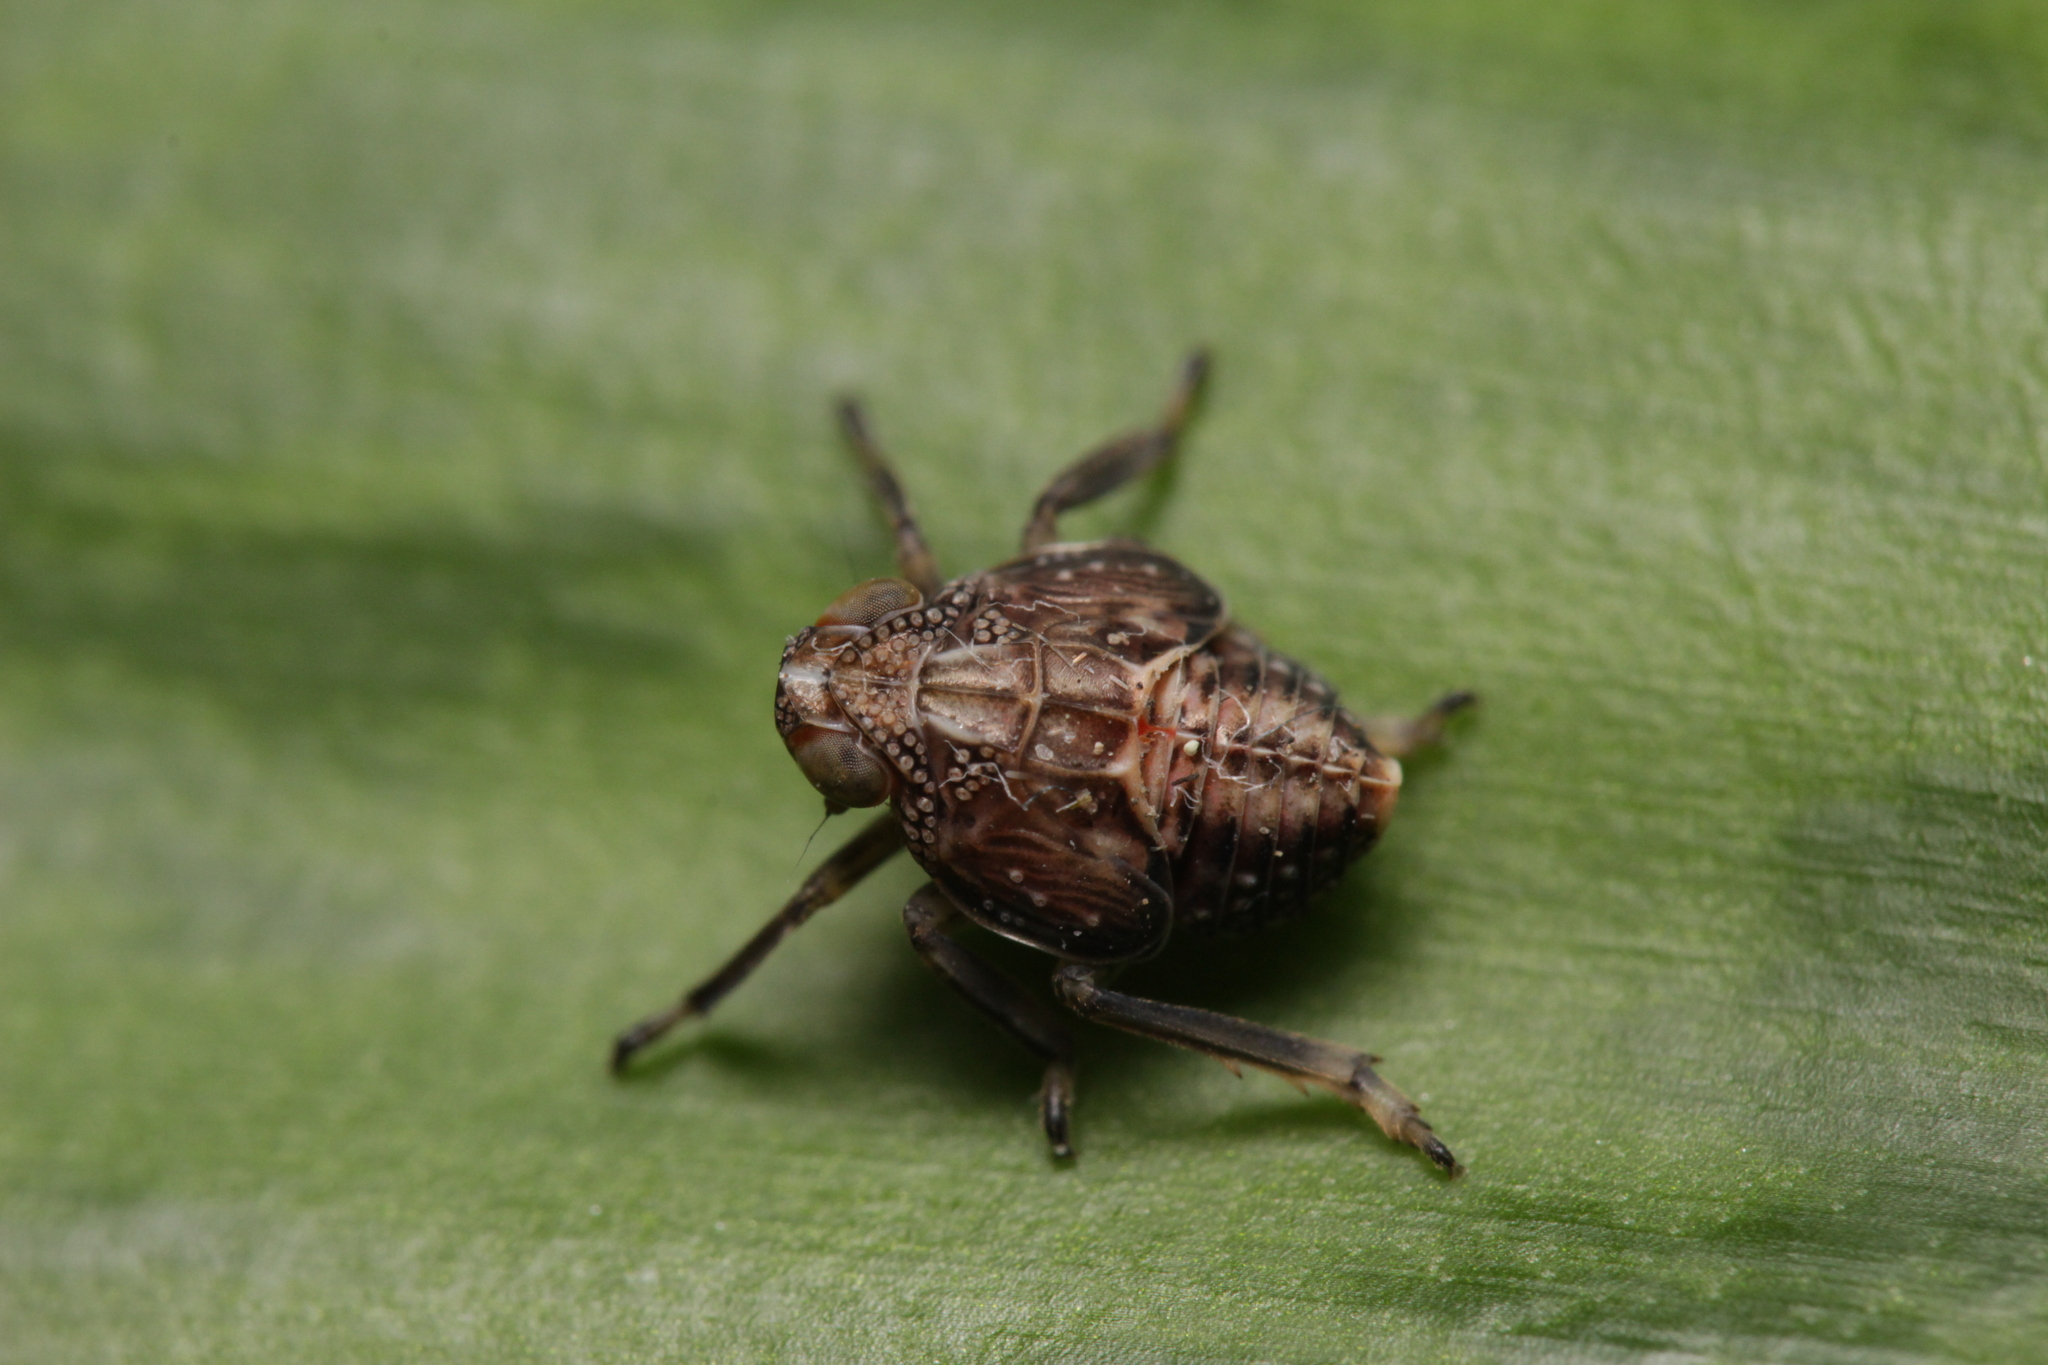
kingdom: Animalia
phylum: Arthropoda
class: Insecta
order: Hemiptera
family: Issidae
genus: Issus
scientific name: Issus coleoptratus
